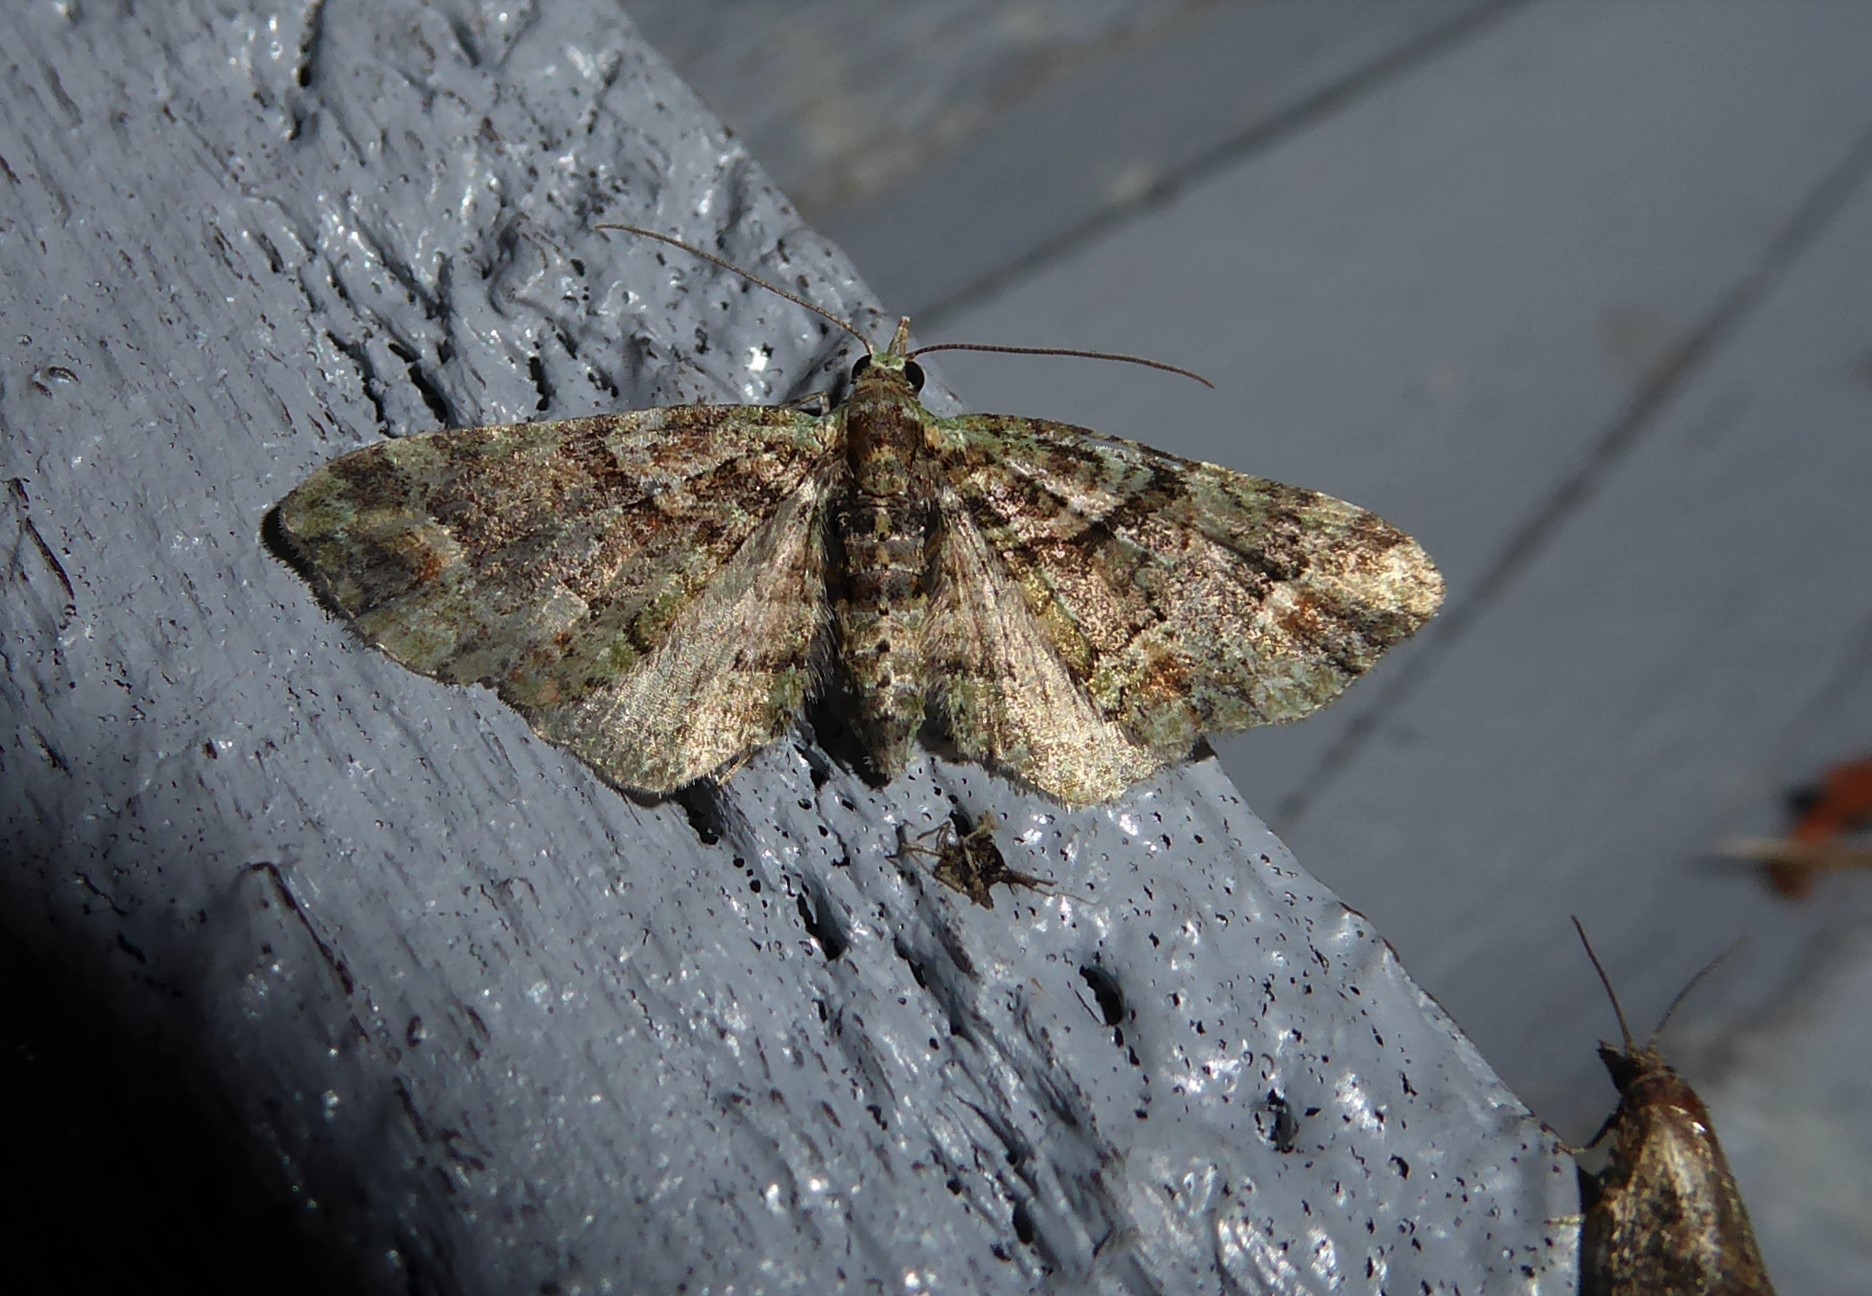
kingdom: Animalia
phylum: Arthropoda
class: Insecta
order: Lepidoptera
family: Geometridae
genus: Idaea
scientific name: Idaea mutanda
